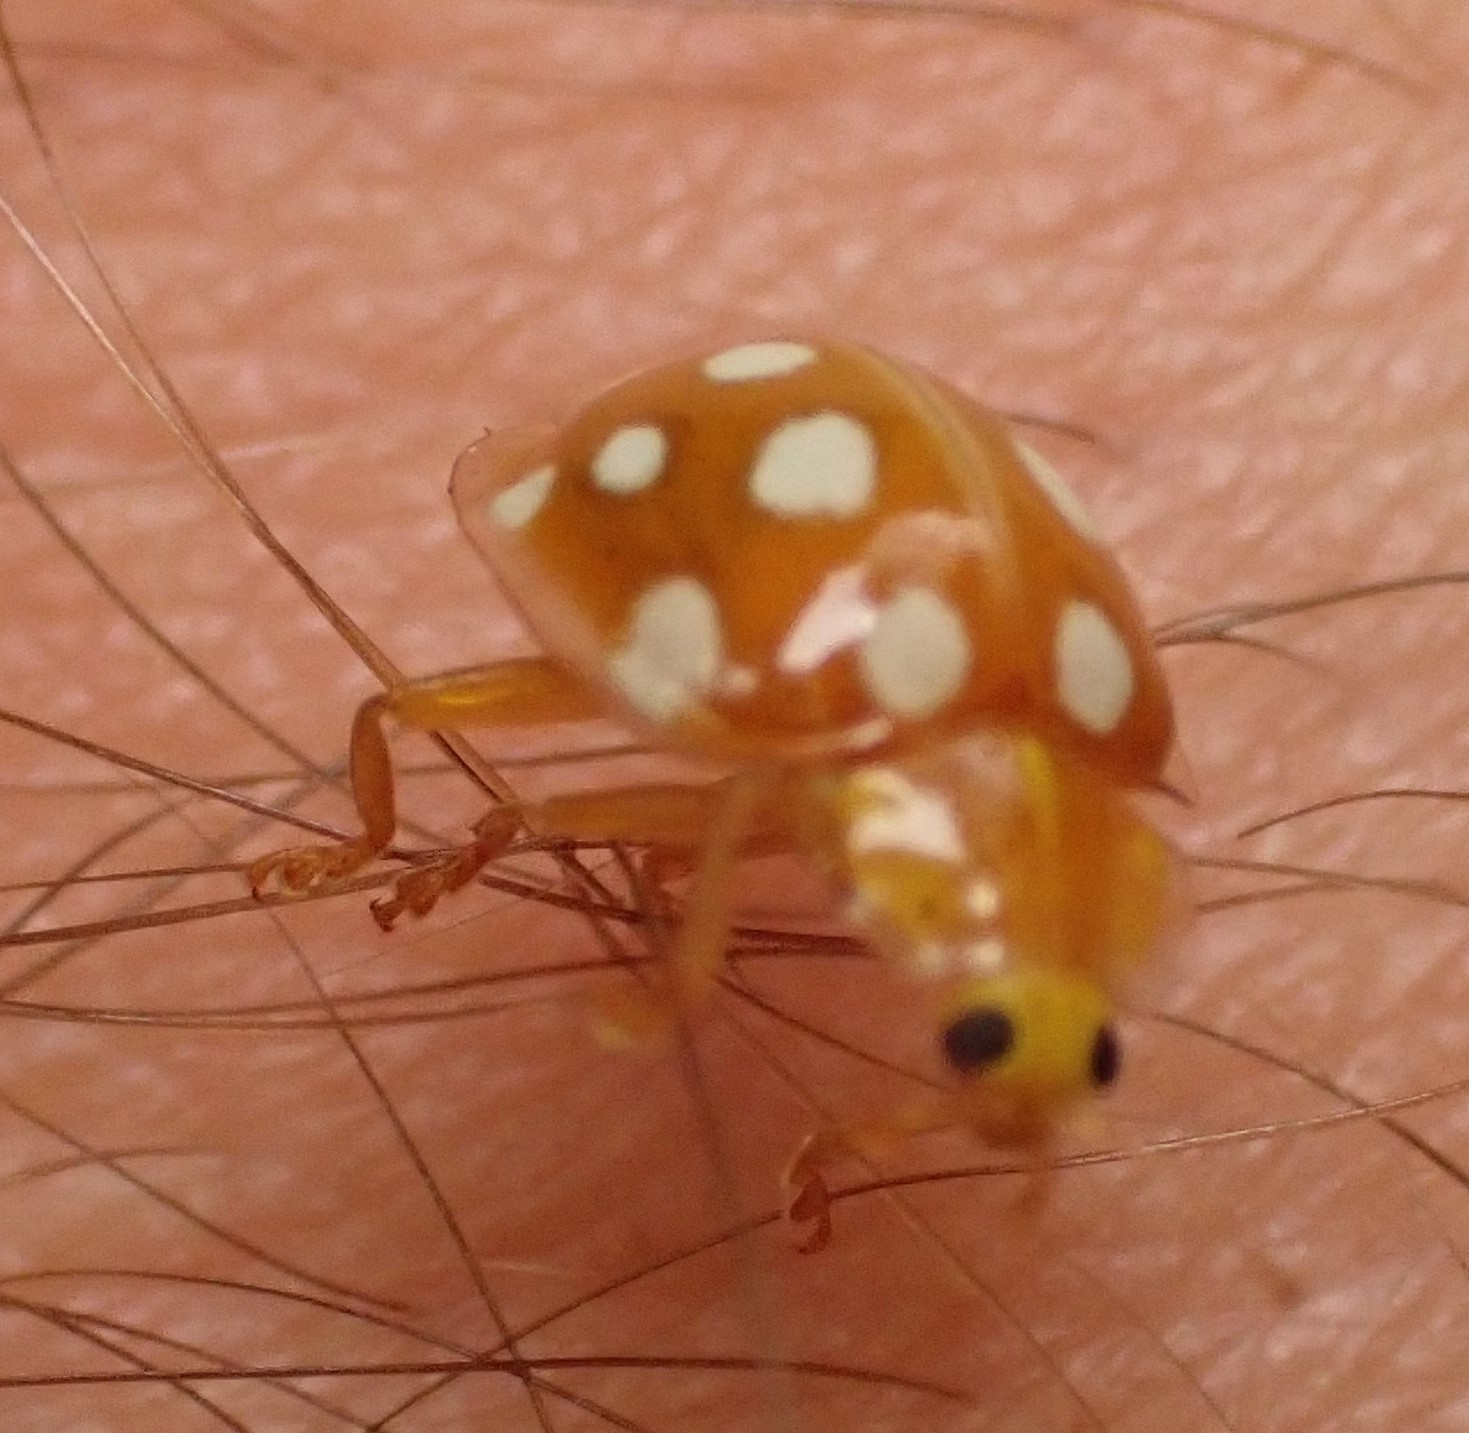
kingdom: Animalia
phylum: Arthropoda
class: Insecta
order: Coleoptera
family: Coccinellidae
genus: Halyzia
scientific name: Halyzia sedecimguttata
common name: Orange ladybird
